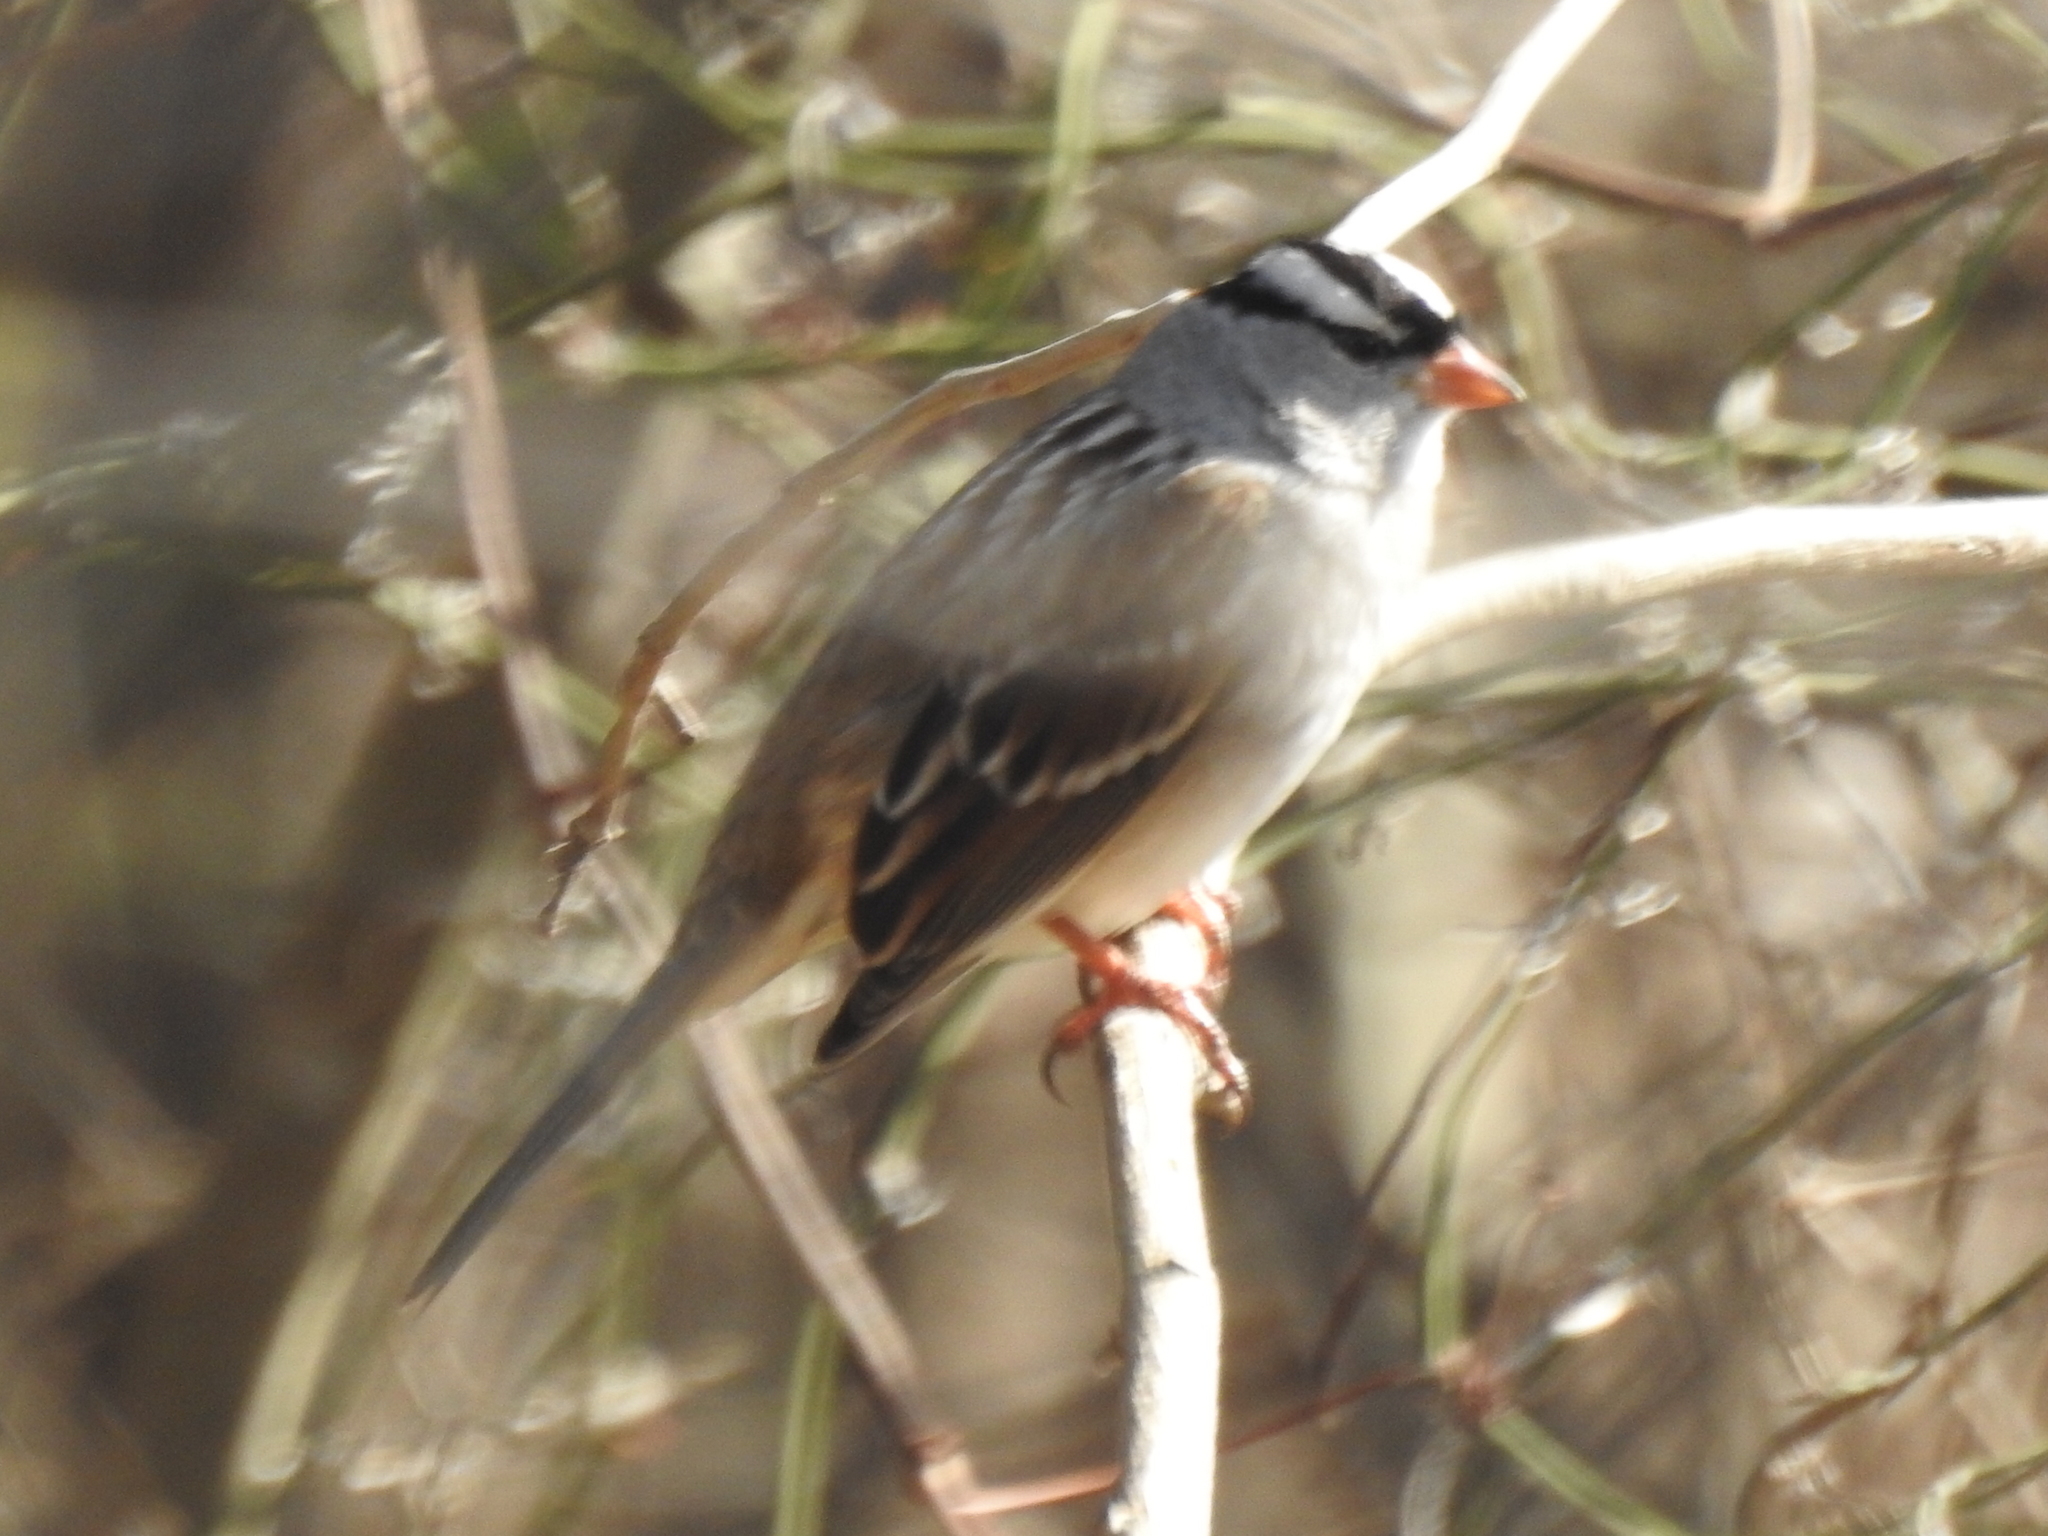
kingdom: Animalia
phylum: Chordata
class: Aves
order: Passeriformes
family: Passerellidae
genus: Zonotrichia
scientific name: Zonotrichia leucophrys
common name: White-crowned sparrow
